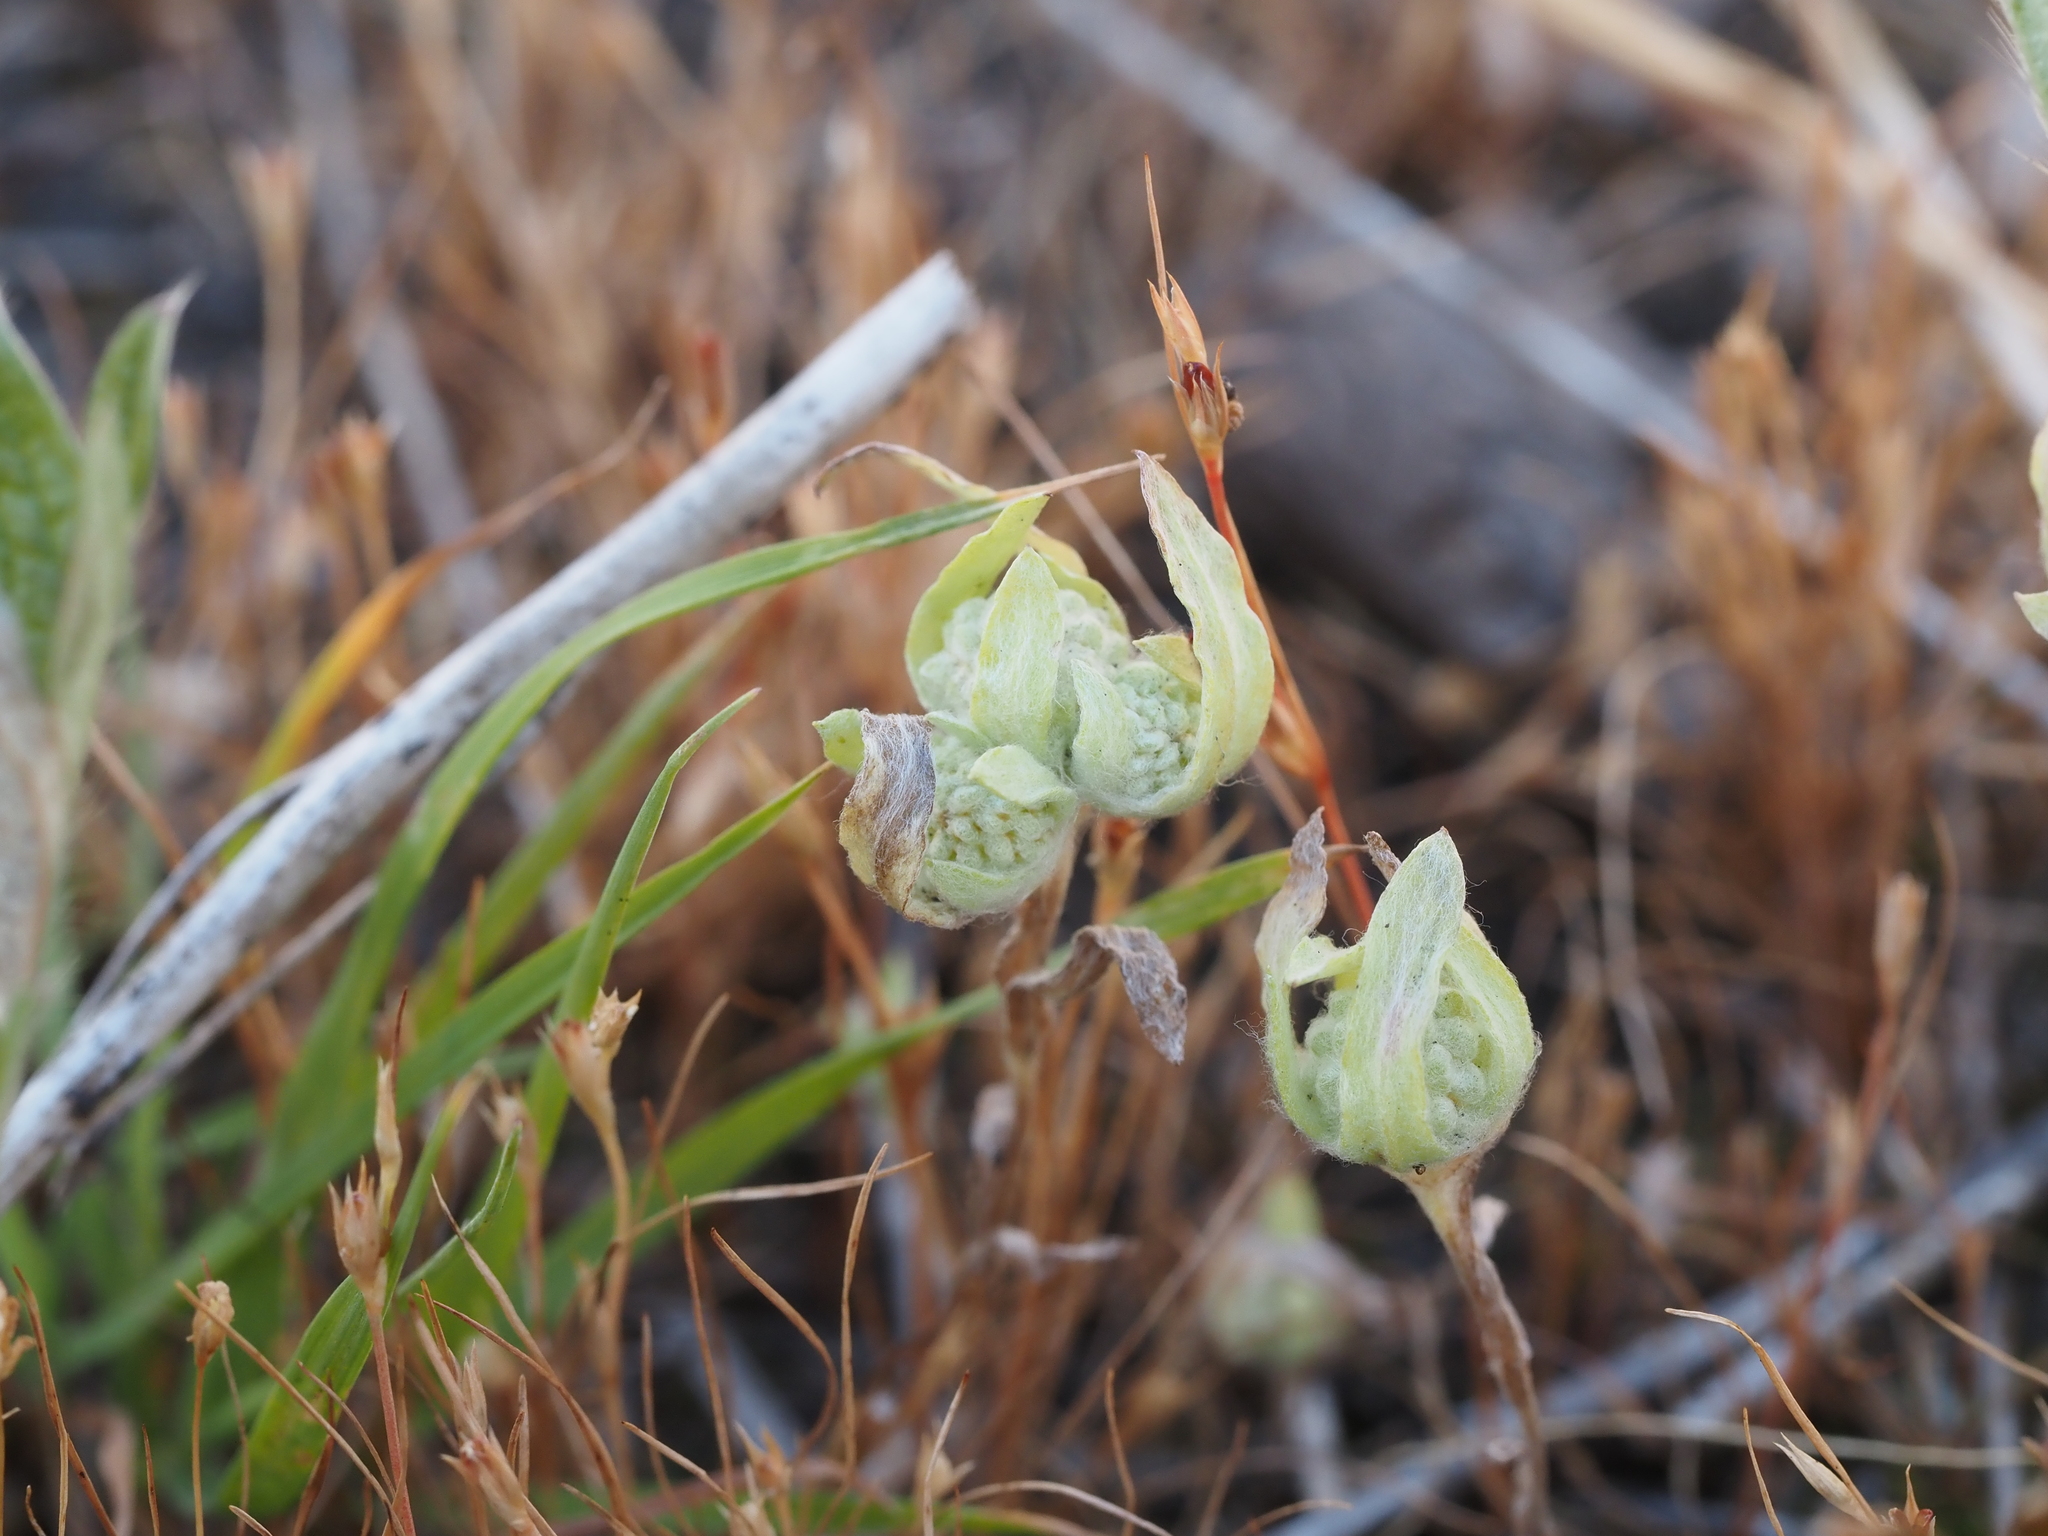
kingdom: Plantae
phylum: Tracheophyta
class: Magnoliopsida
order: Asterales
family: Asteraceae
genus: Psilocarphus
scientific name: Psilocarphus elatior
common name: Meadow woollyheads
